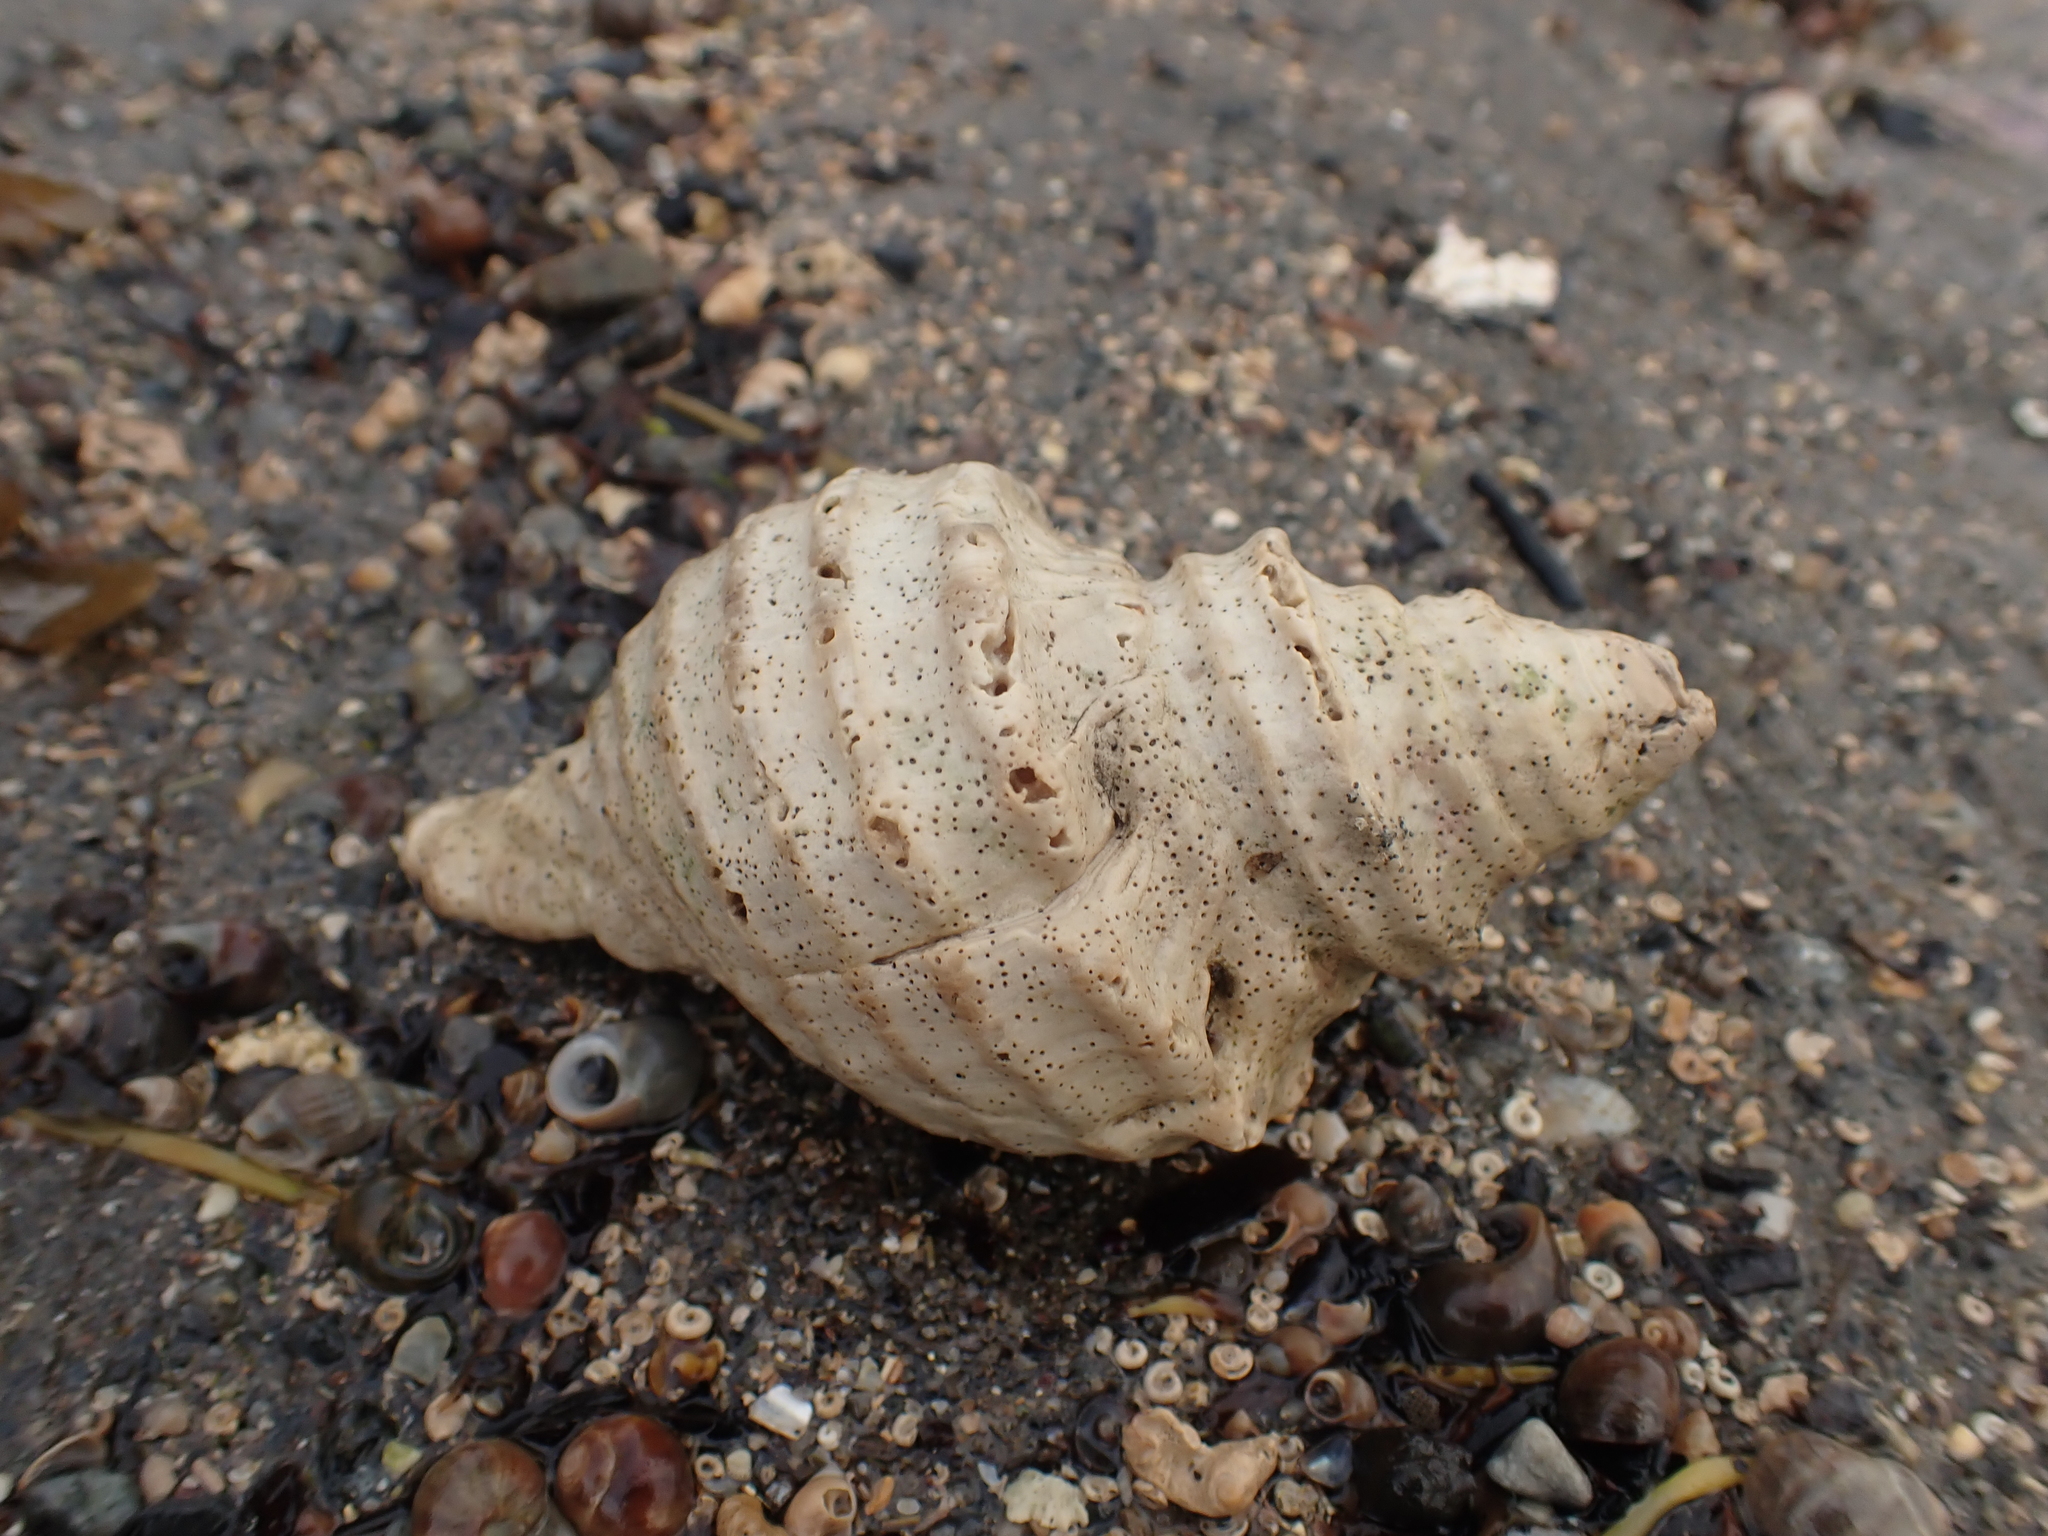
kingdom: Animalia
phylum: Mollusca
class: Gastropoda
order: Neogastropoda
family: Buccinidae
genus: Neptunea
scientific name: Neptunea decemcostata
